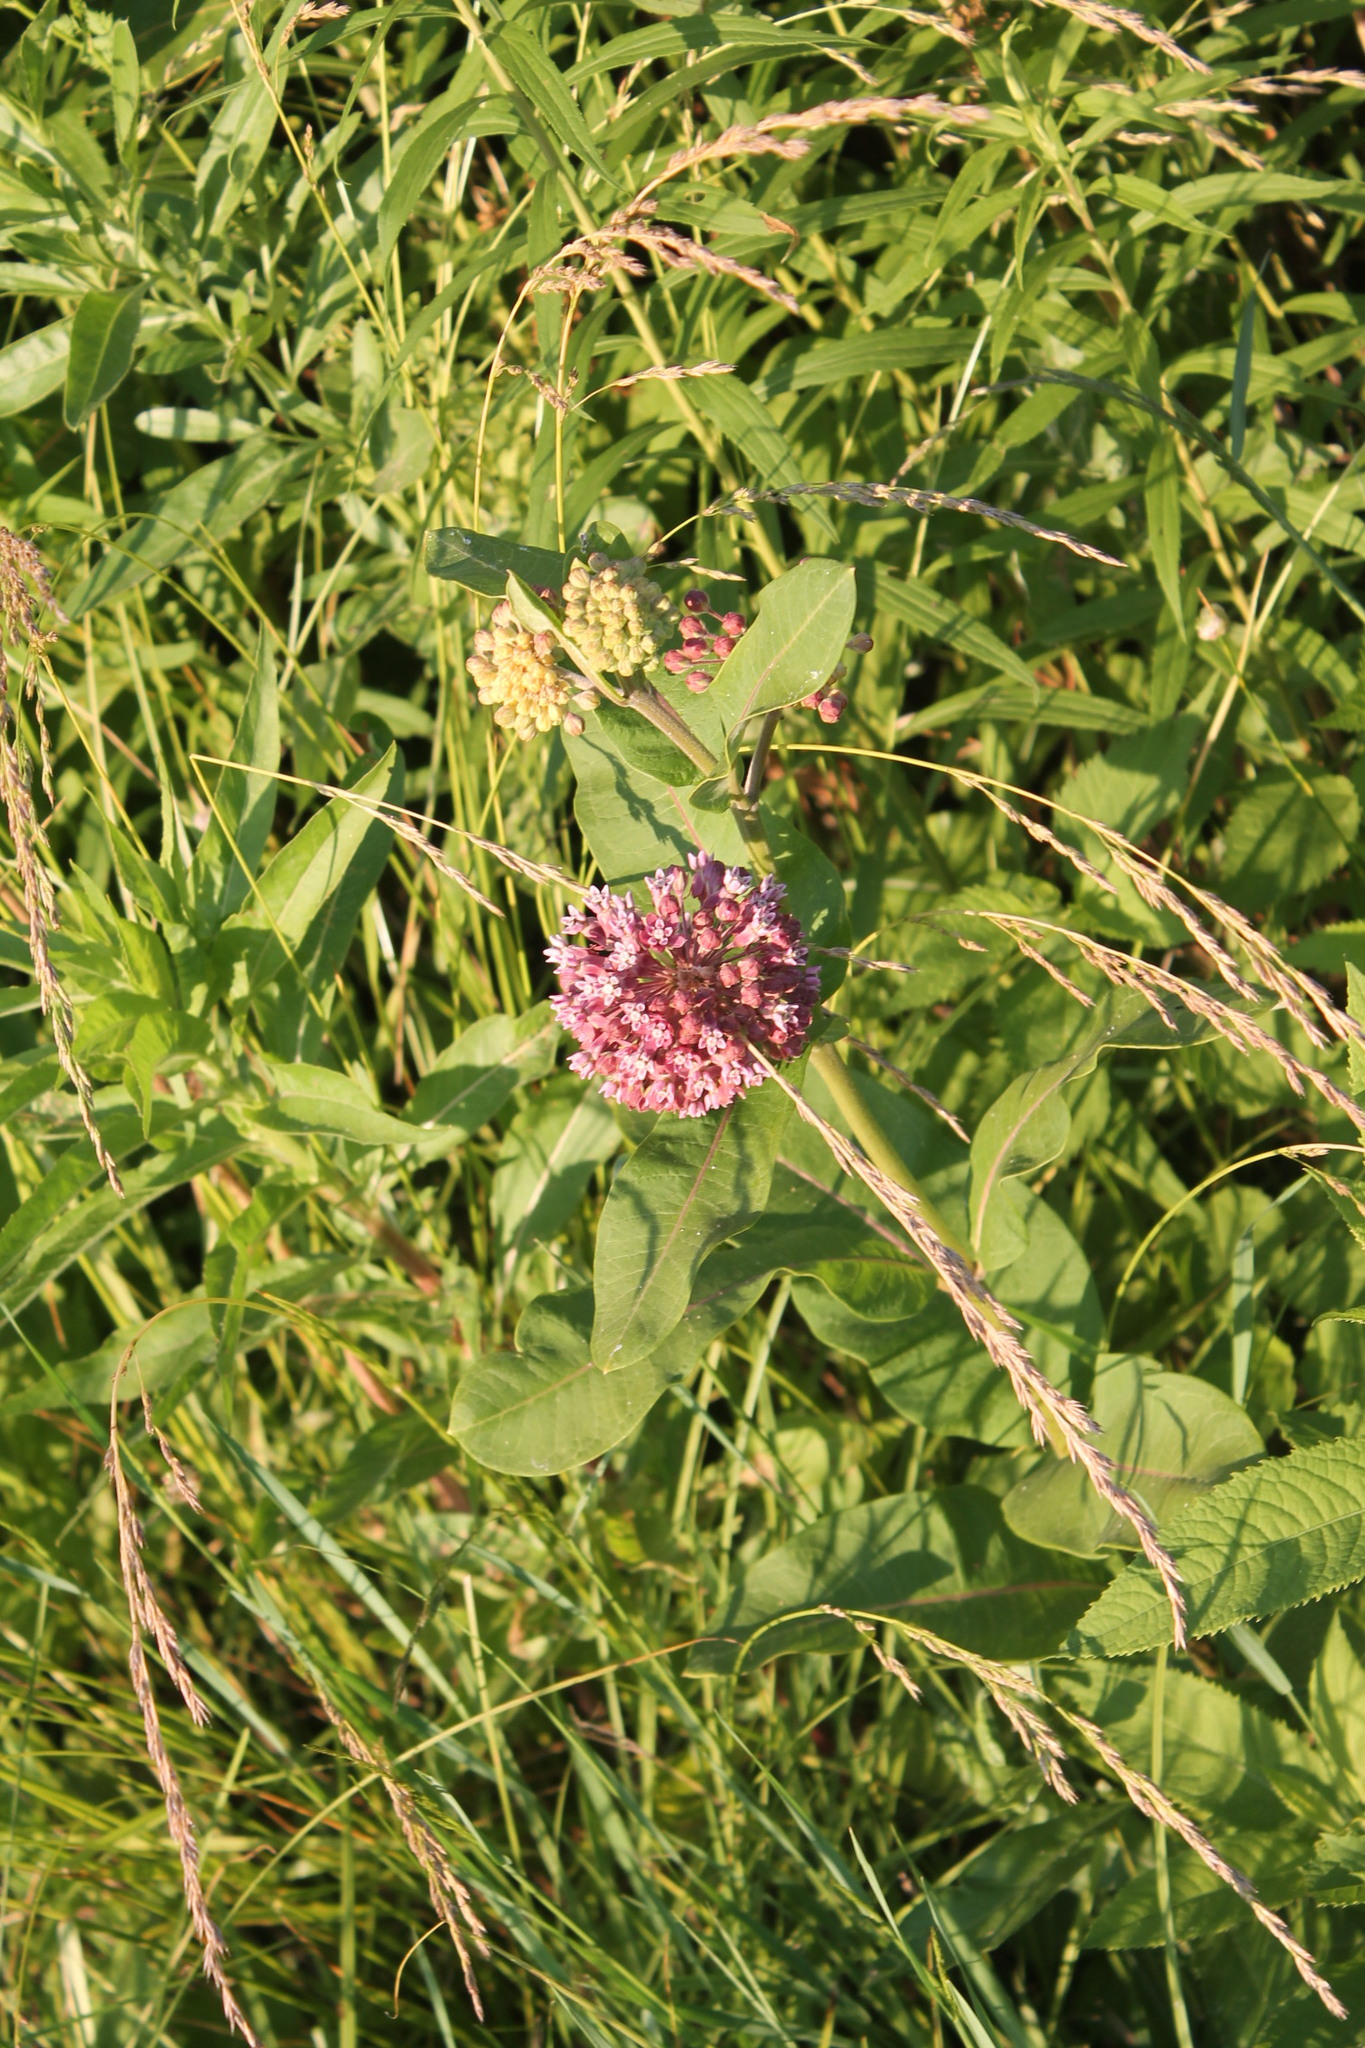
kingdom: Plantae
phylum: Tracheophyta
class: Magnoliopsida
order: Gentianales
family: Apocynaceae
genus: Asclepias
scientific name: Asclepias syriaca
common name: Common milkweed
